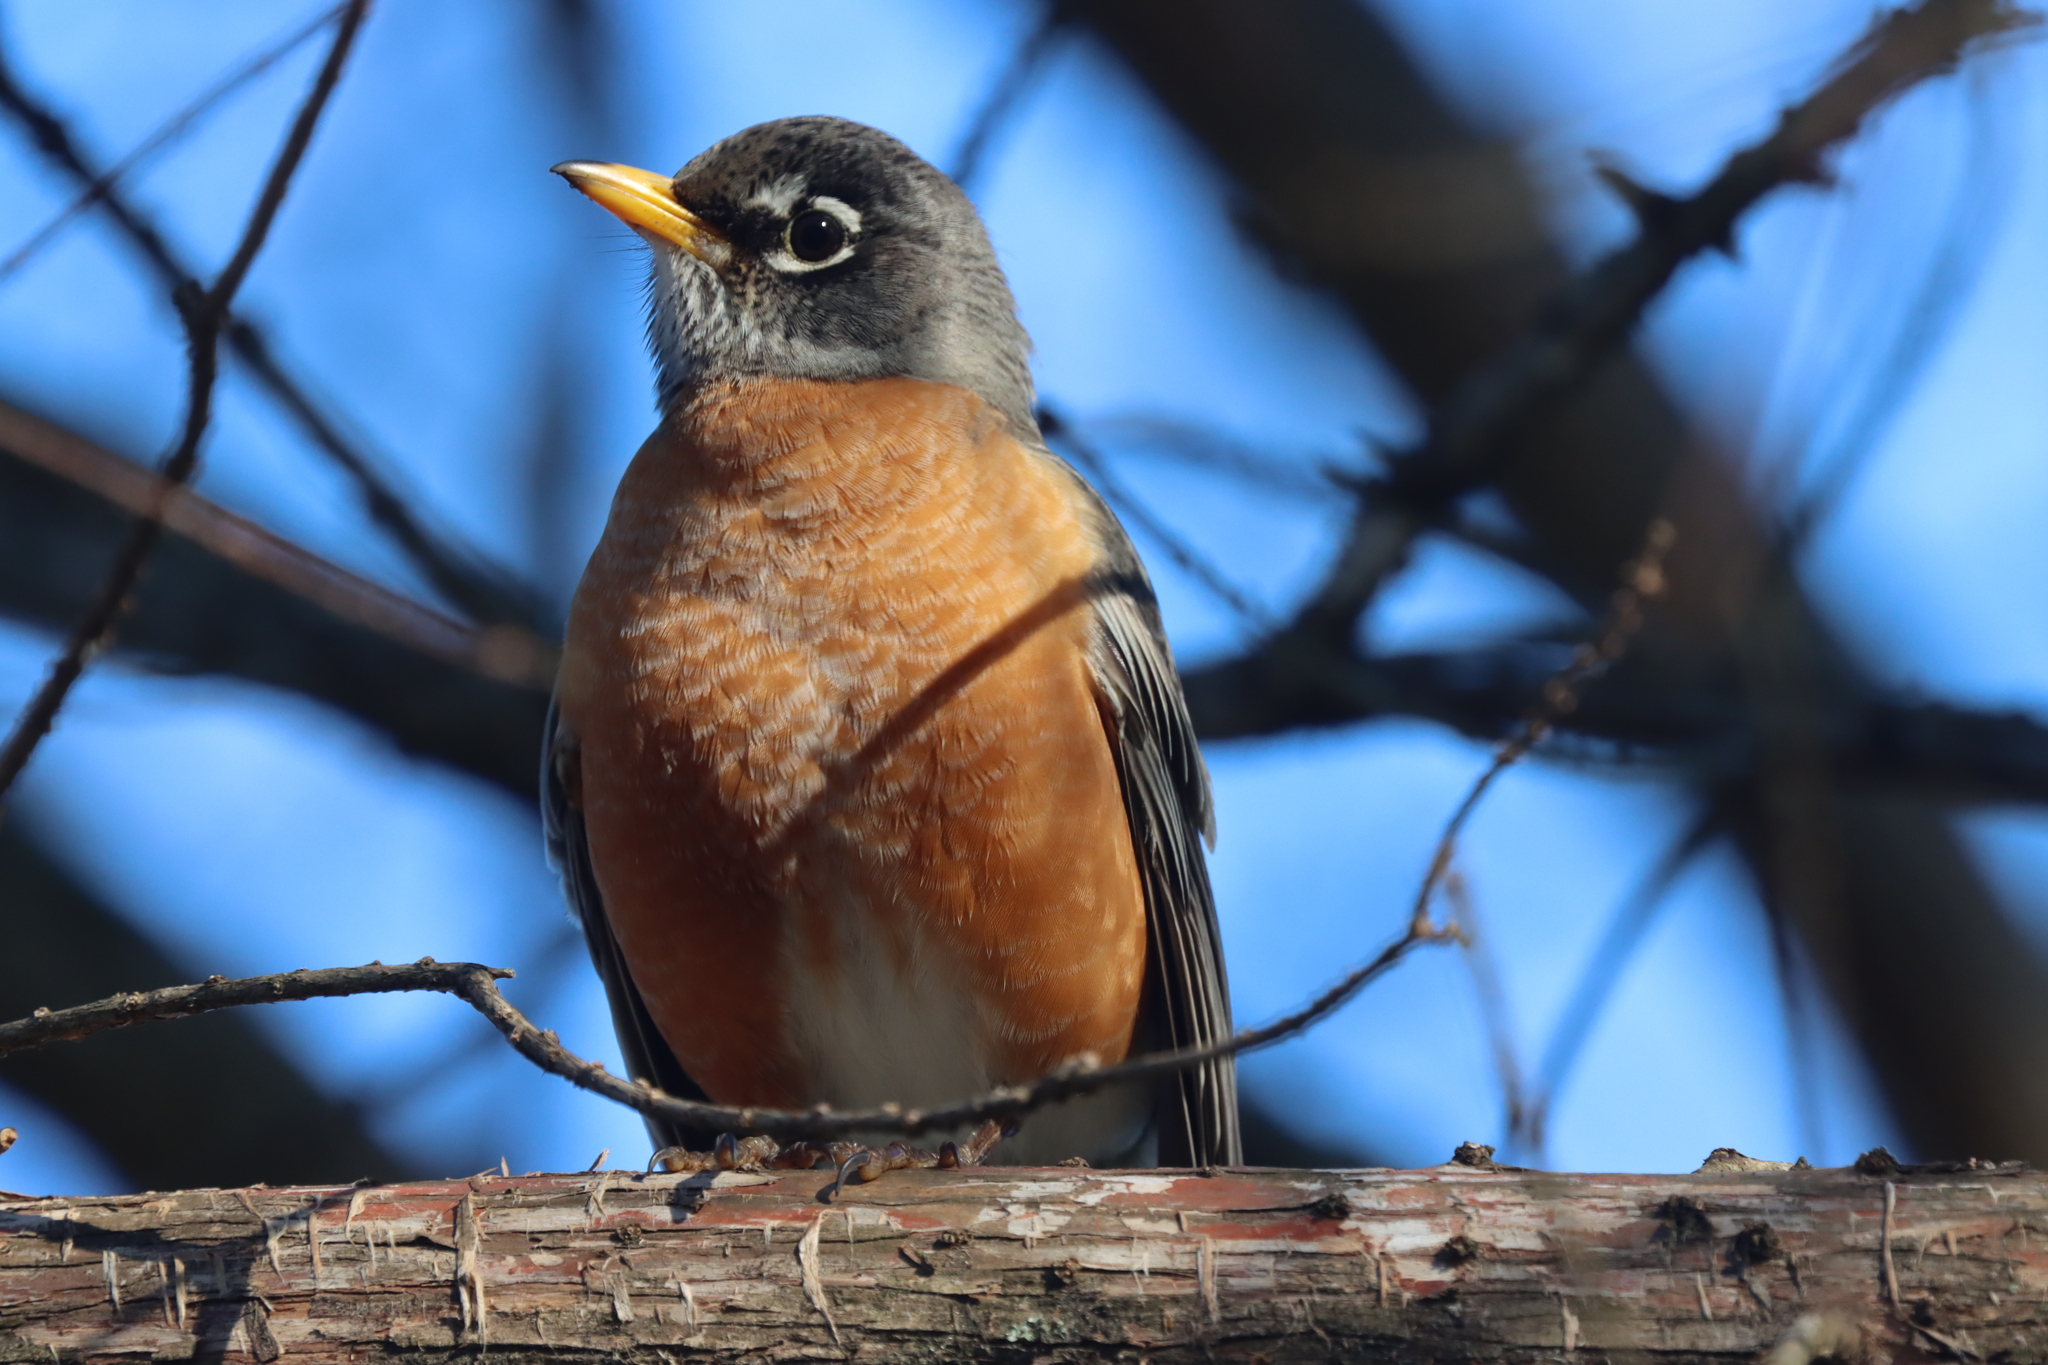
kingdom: Animalia
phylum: Chordata
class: Aves
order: Passeriformes
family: Turdidae
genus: Turdus
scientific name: Turdus migratorius
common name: American robin
